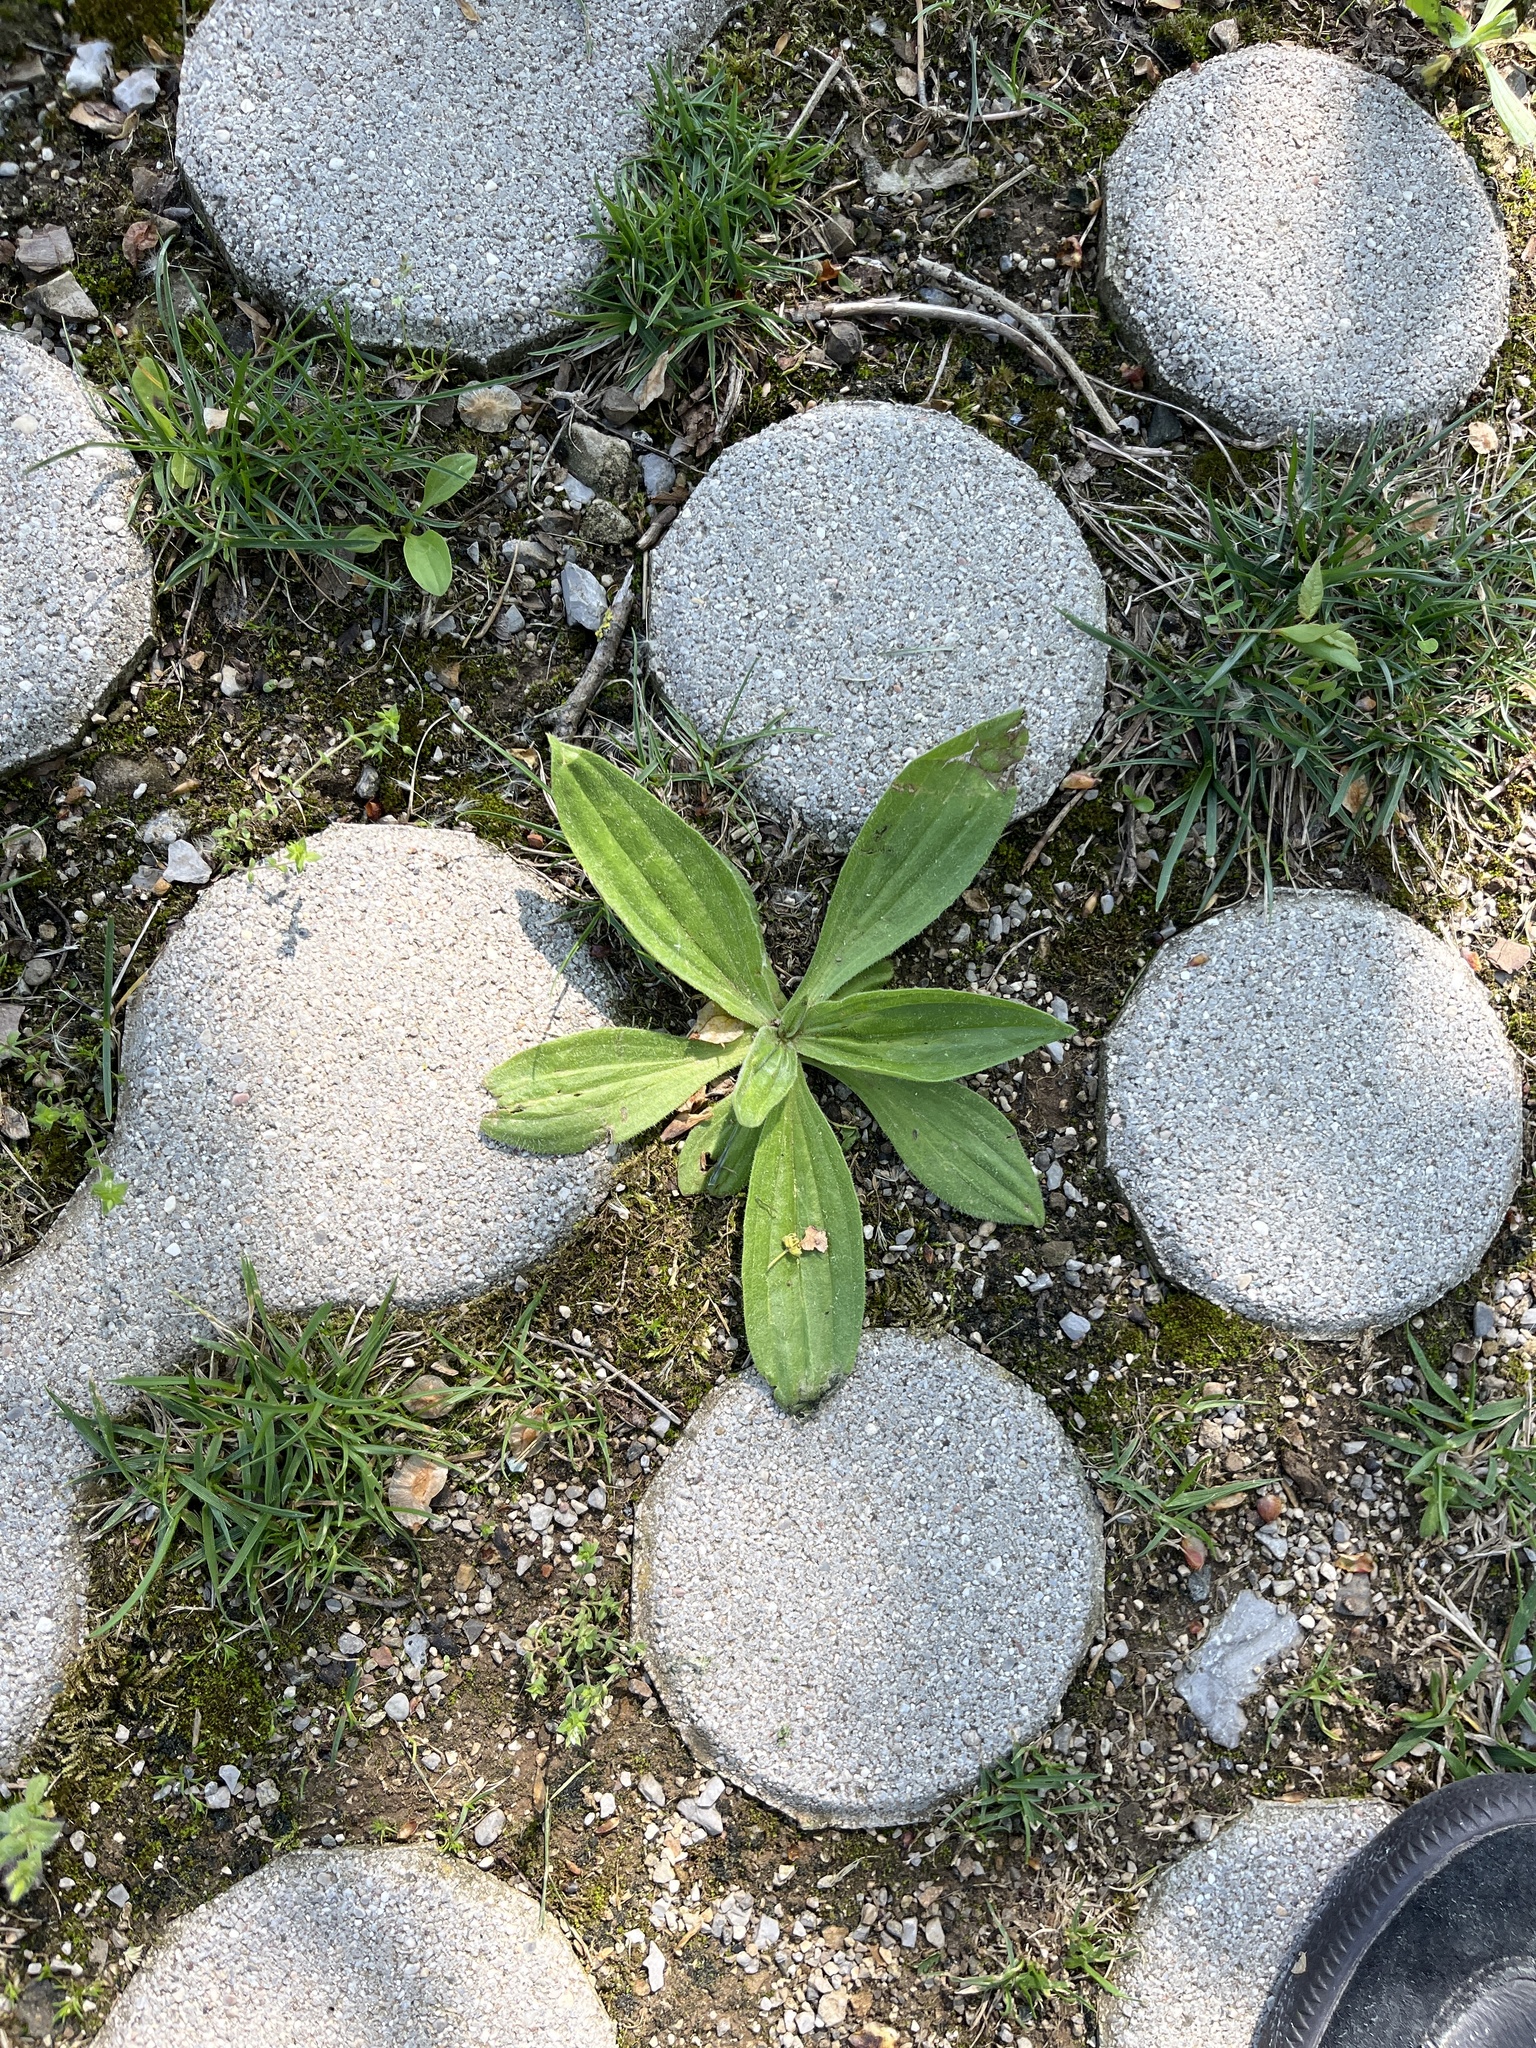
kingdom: Plantae
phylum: Tracheophyta
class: Magnoliopsida
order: Lamiales
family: Plantaginaceae
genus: Plantago
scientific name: Plantago media
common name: Hoary plantain
